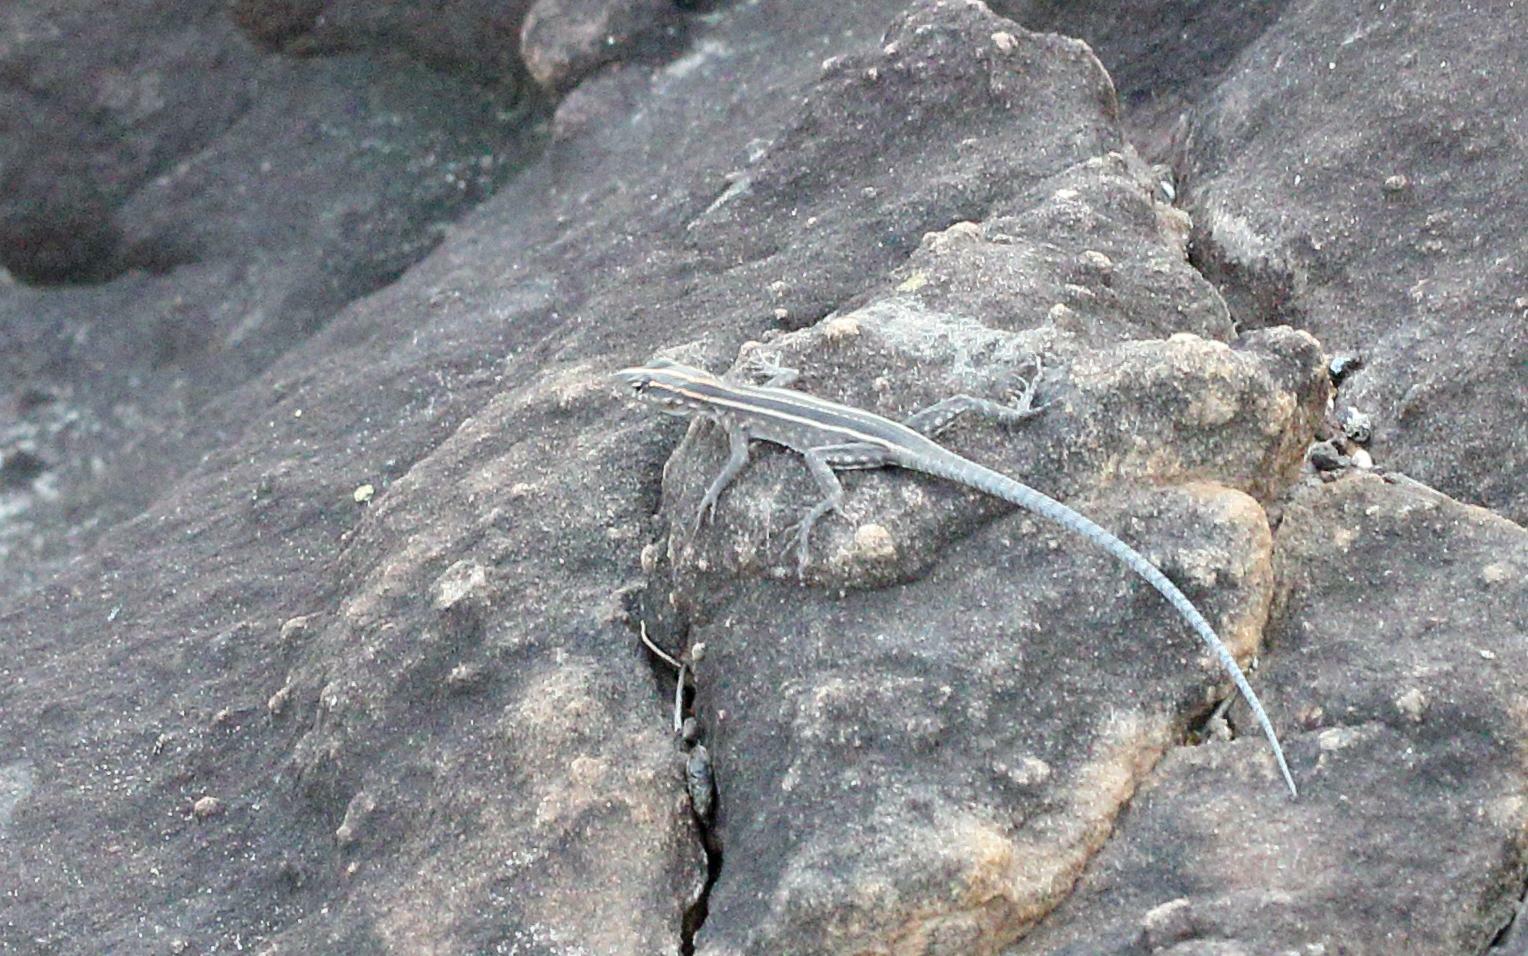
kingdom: Animalia
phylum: Chordata
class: Squamata
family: Cordylidae
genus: Platysaurus
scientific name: Platysaurus intermedius
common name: Common flat lizard
